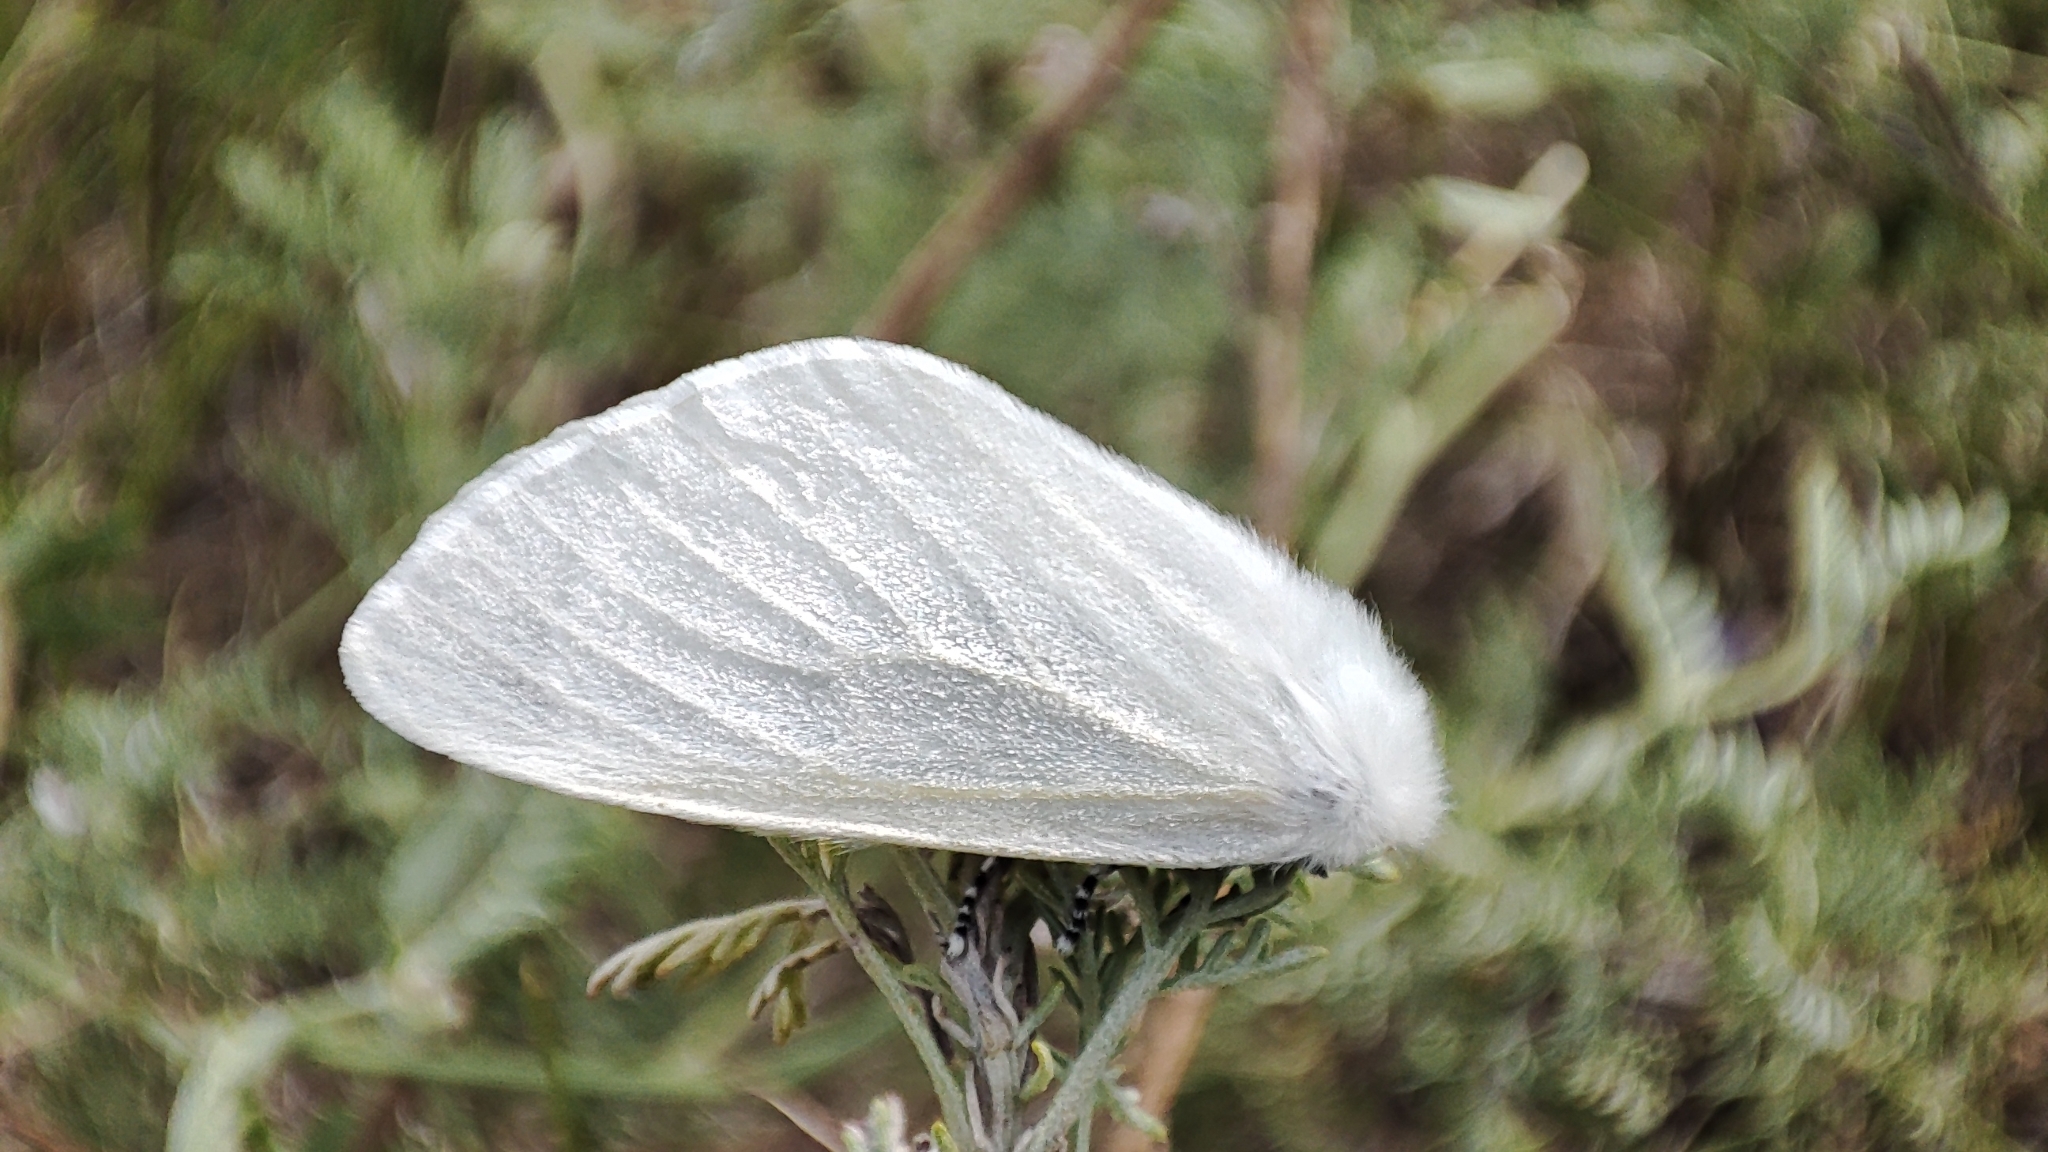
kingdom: Animalia
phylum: Arthropoda
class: Insecta
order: Lepidoptera
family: Erebidae
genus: Leucoma
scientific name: Leucoma salicis
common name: White satin moth
